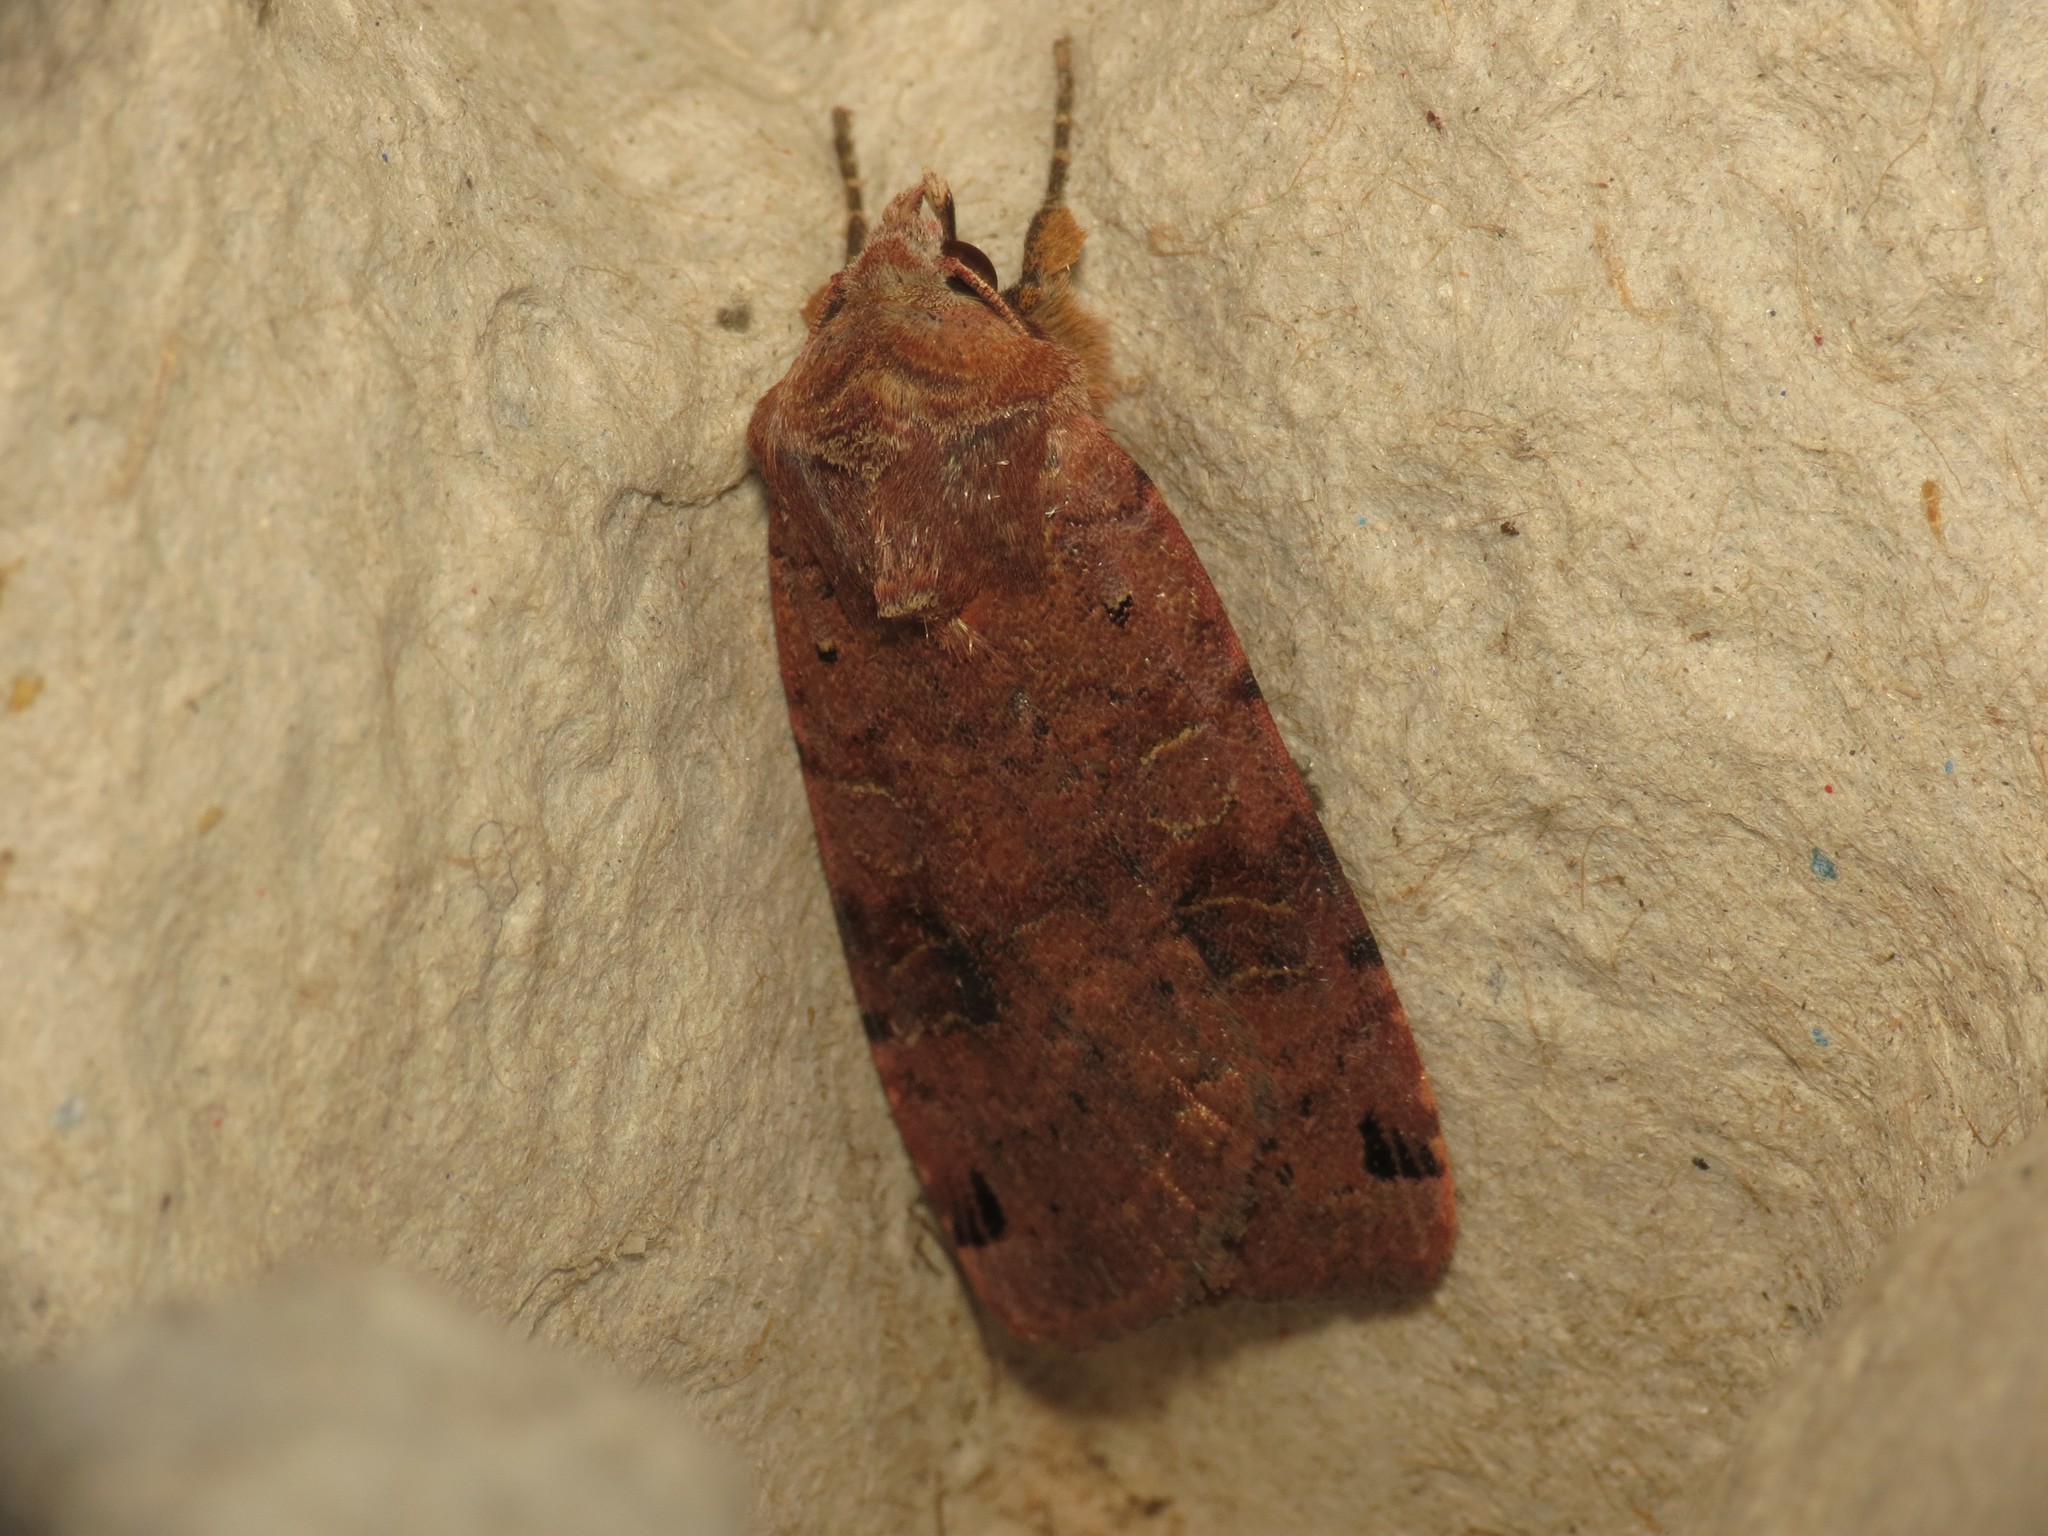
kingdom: Animalia
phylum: Arthropoda
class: Insecta
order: Lepidoptera
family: Noctuidae
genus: Xestia
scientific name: Xestia baja
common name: Dotted clay
